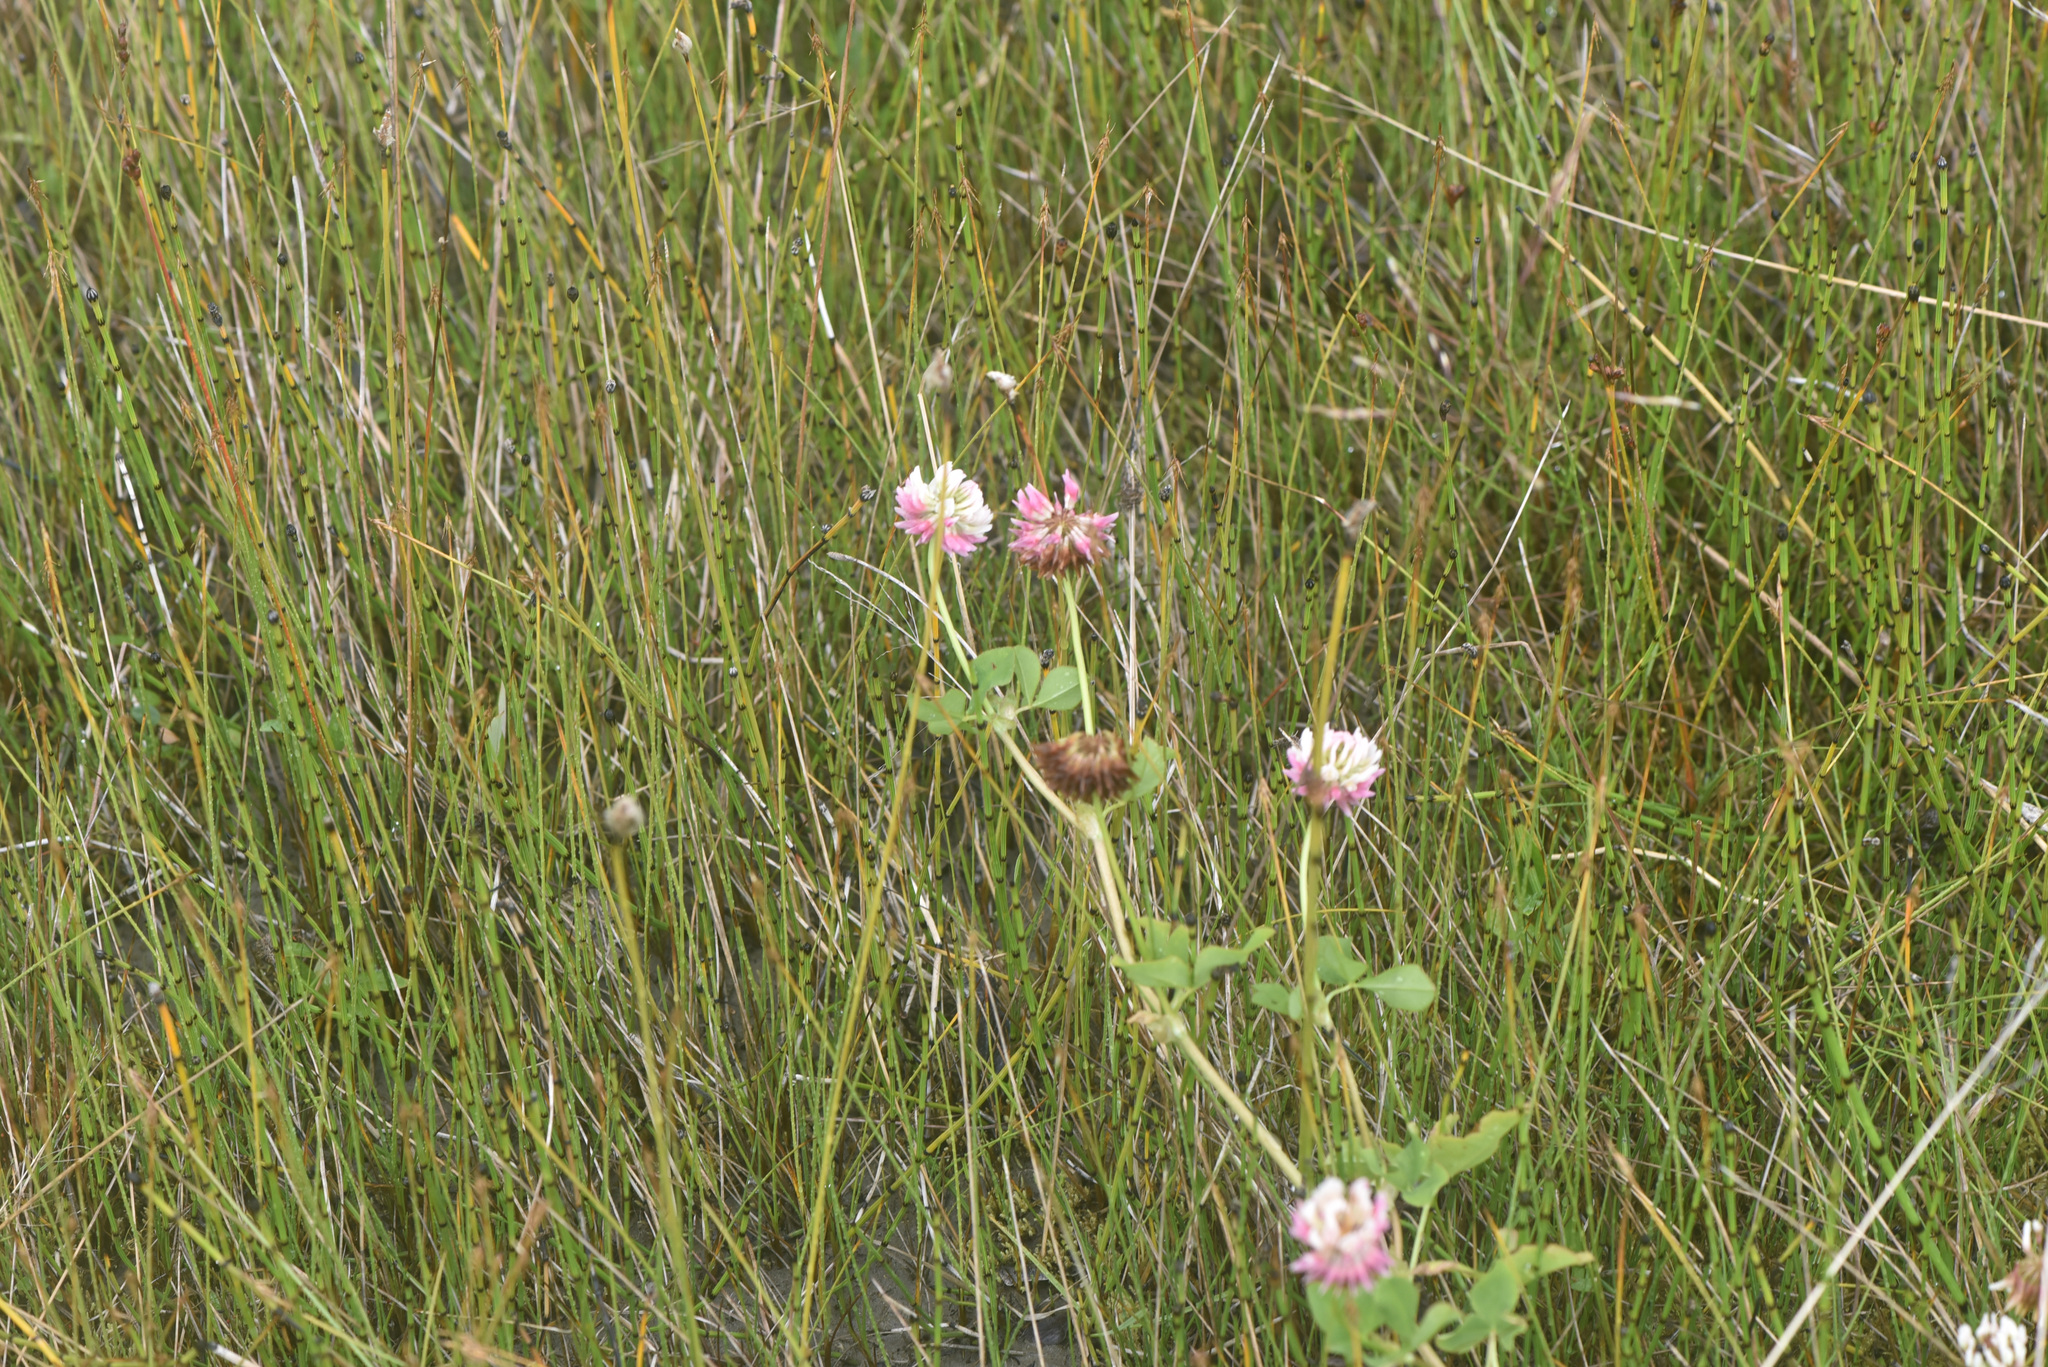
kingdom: Plantae
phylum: Tracheophyta
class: Magnoliopsida
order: Fabales
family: Fabaceae
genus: Trifolium
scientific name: Trifolium hybridum
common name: Alsike clover
